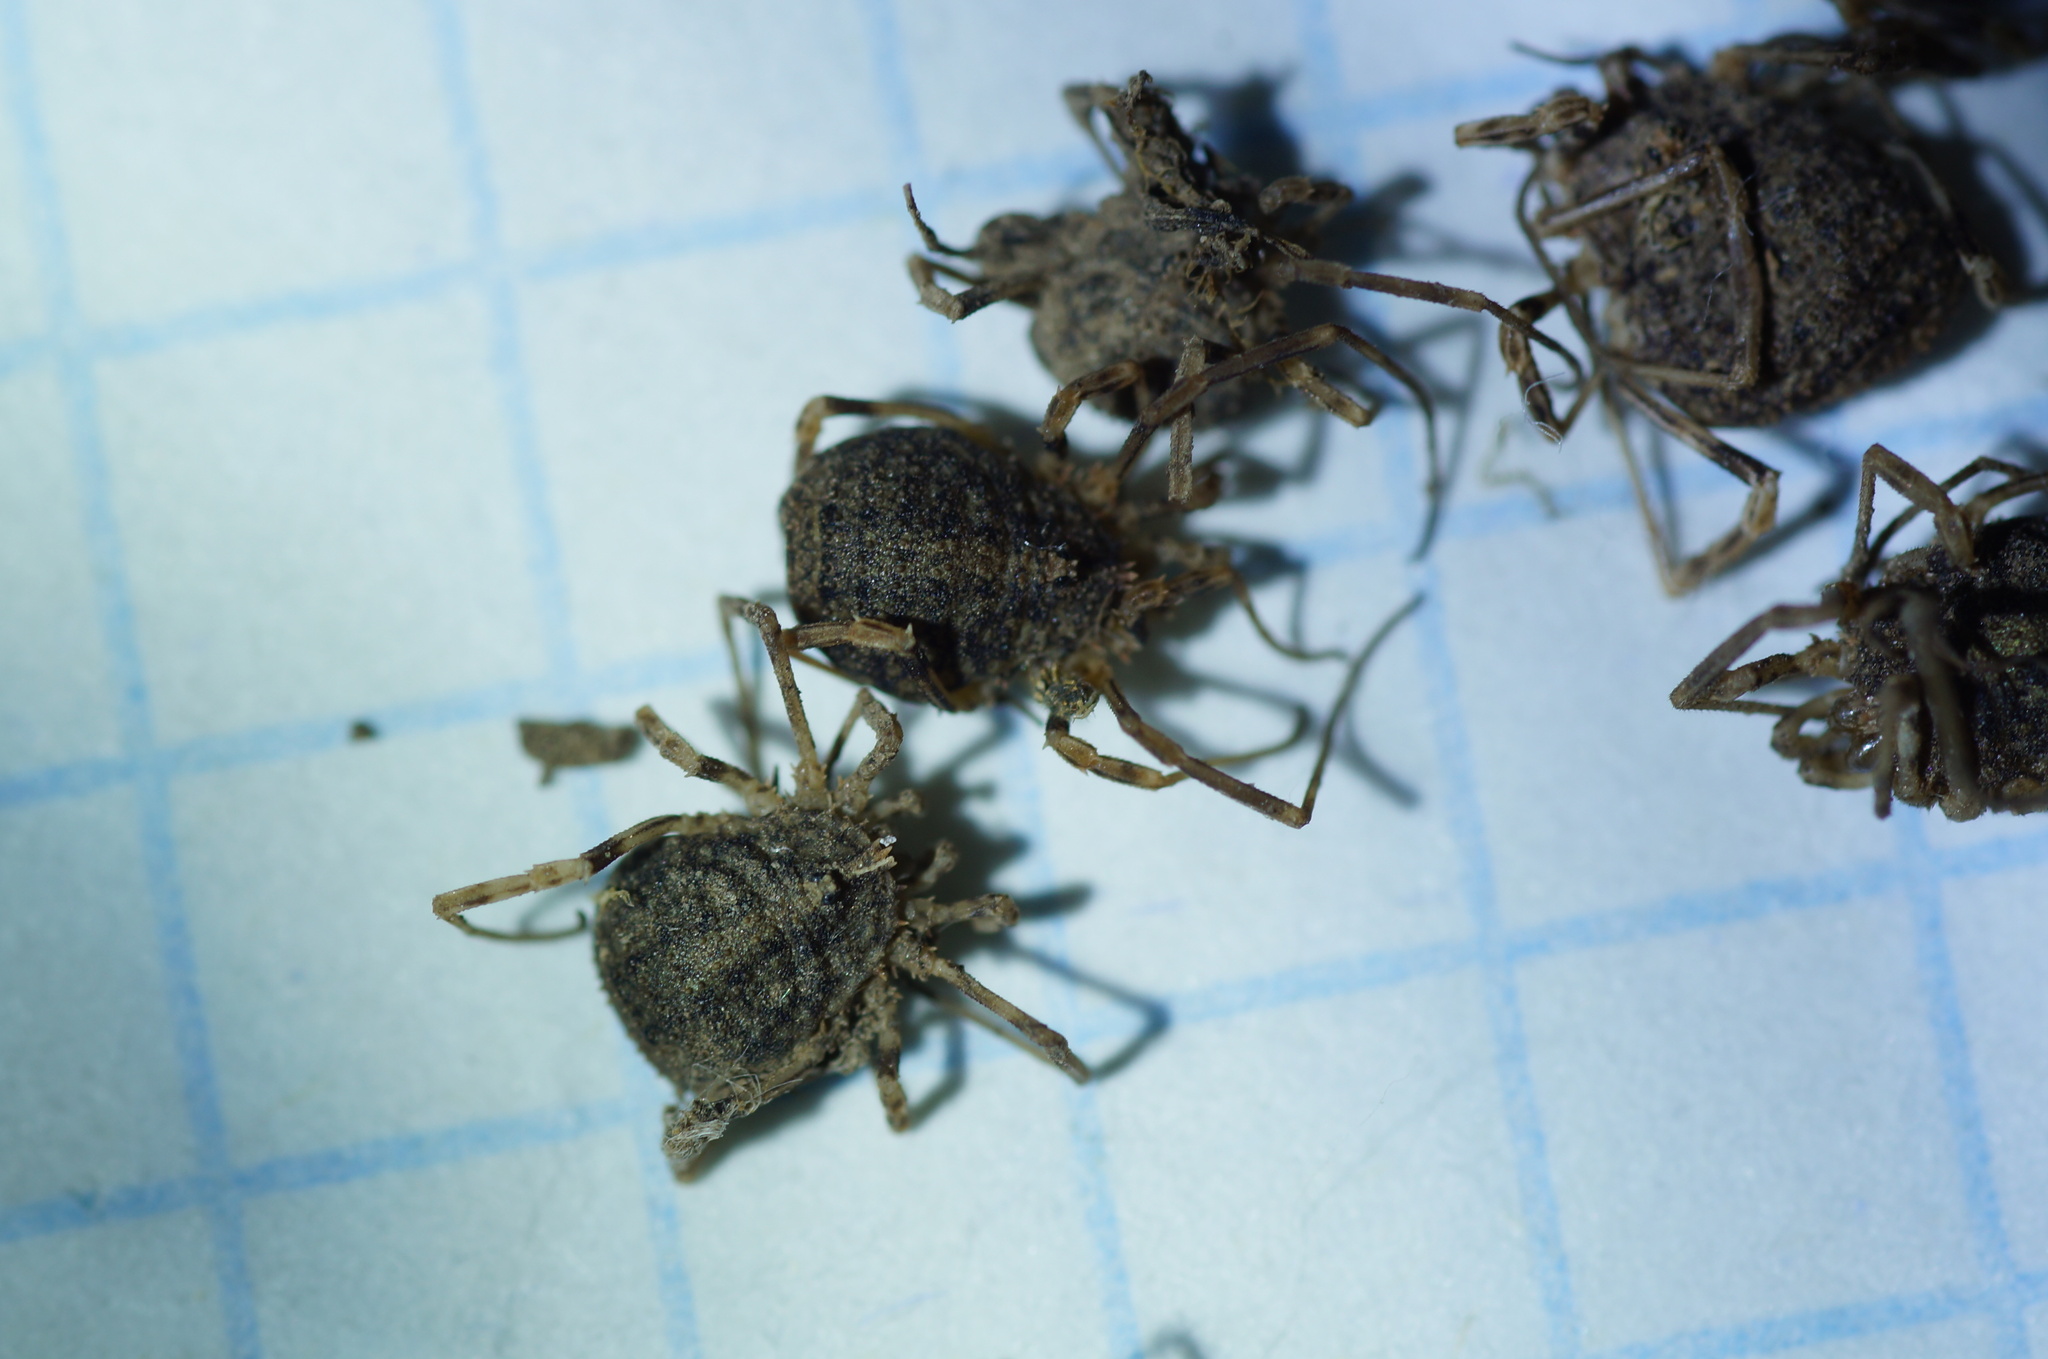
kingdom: Animalia
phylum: Arthropoda
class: Arachnida
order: Opiliones
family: Phalangiidae
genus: Odiellus
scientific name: Odiellus lendlii
